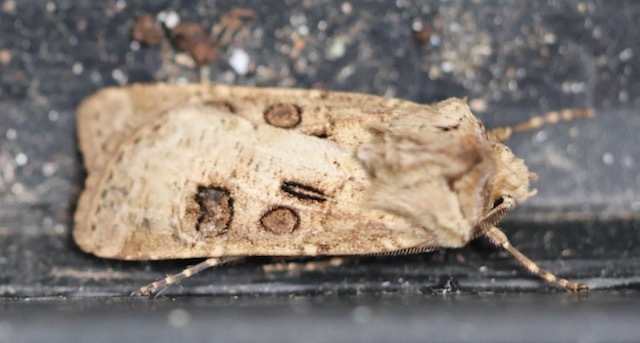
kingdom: Animalia
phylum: Arthropoda
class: Insecta
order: Lepidoptera
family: Noctuidae
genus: Agrotis
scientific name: Agrotis clavis
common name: Heart and club
